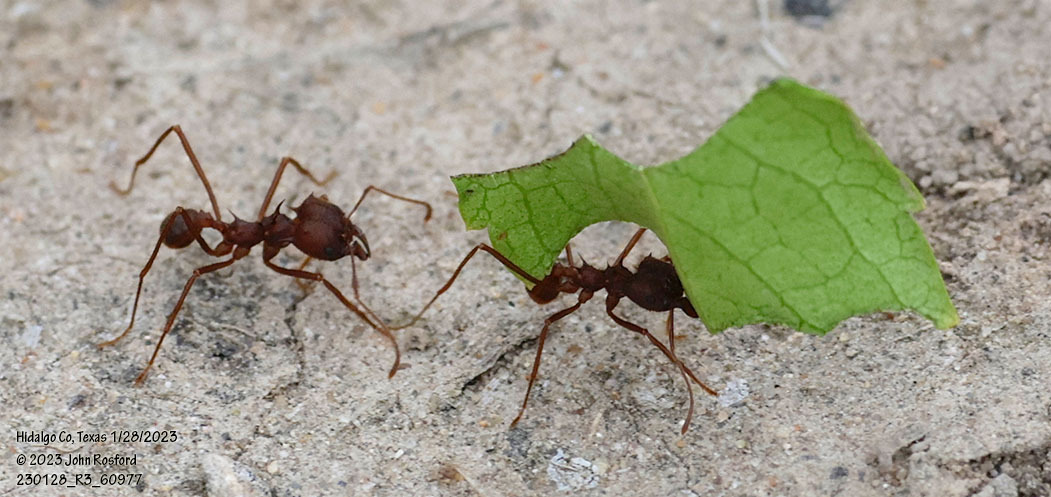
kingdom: Animalia
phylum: Arthropoda
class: Insecta
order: Hymenoptera
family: Formicidae
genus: Atta
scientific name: Atta texana
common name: Texas leafcutting ant
